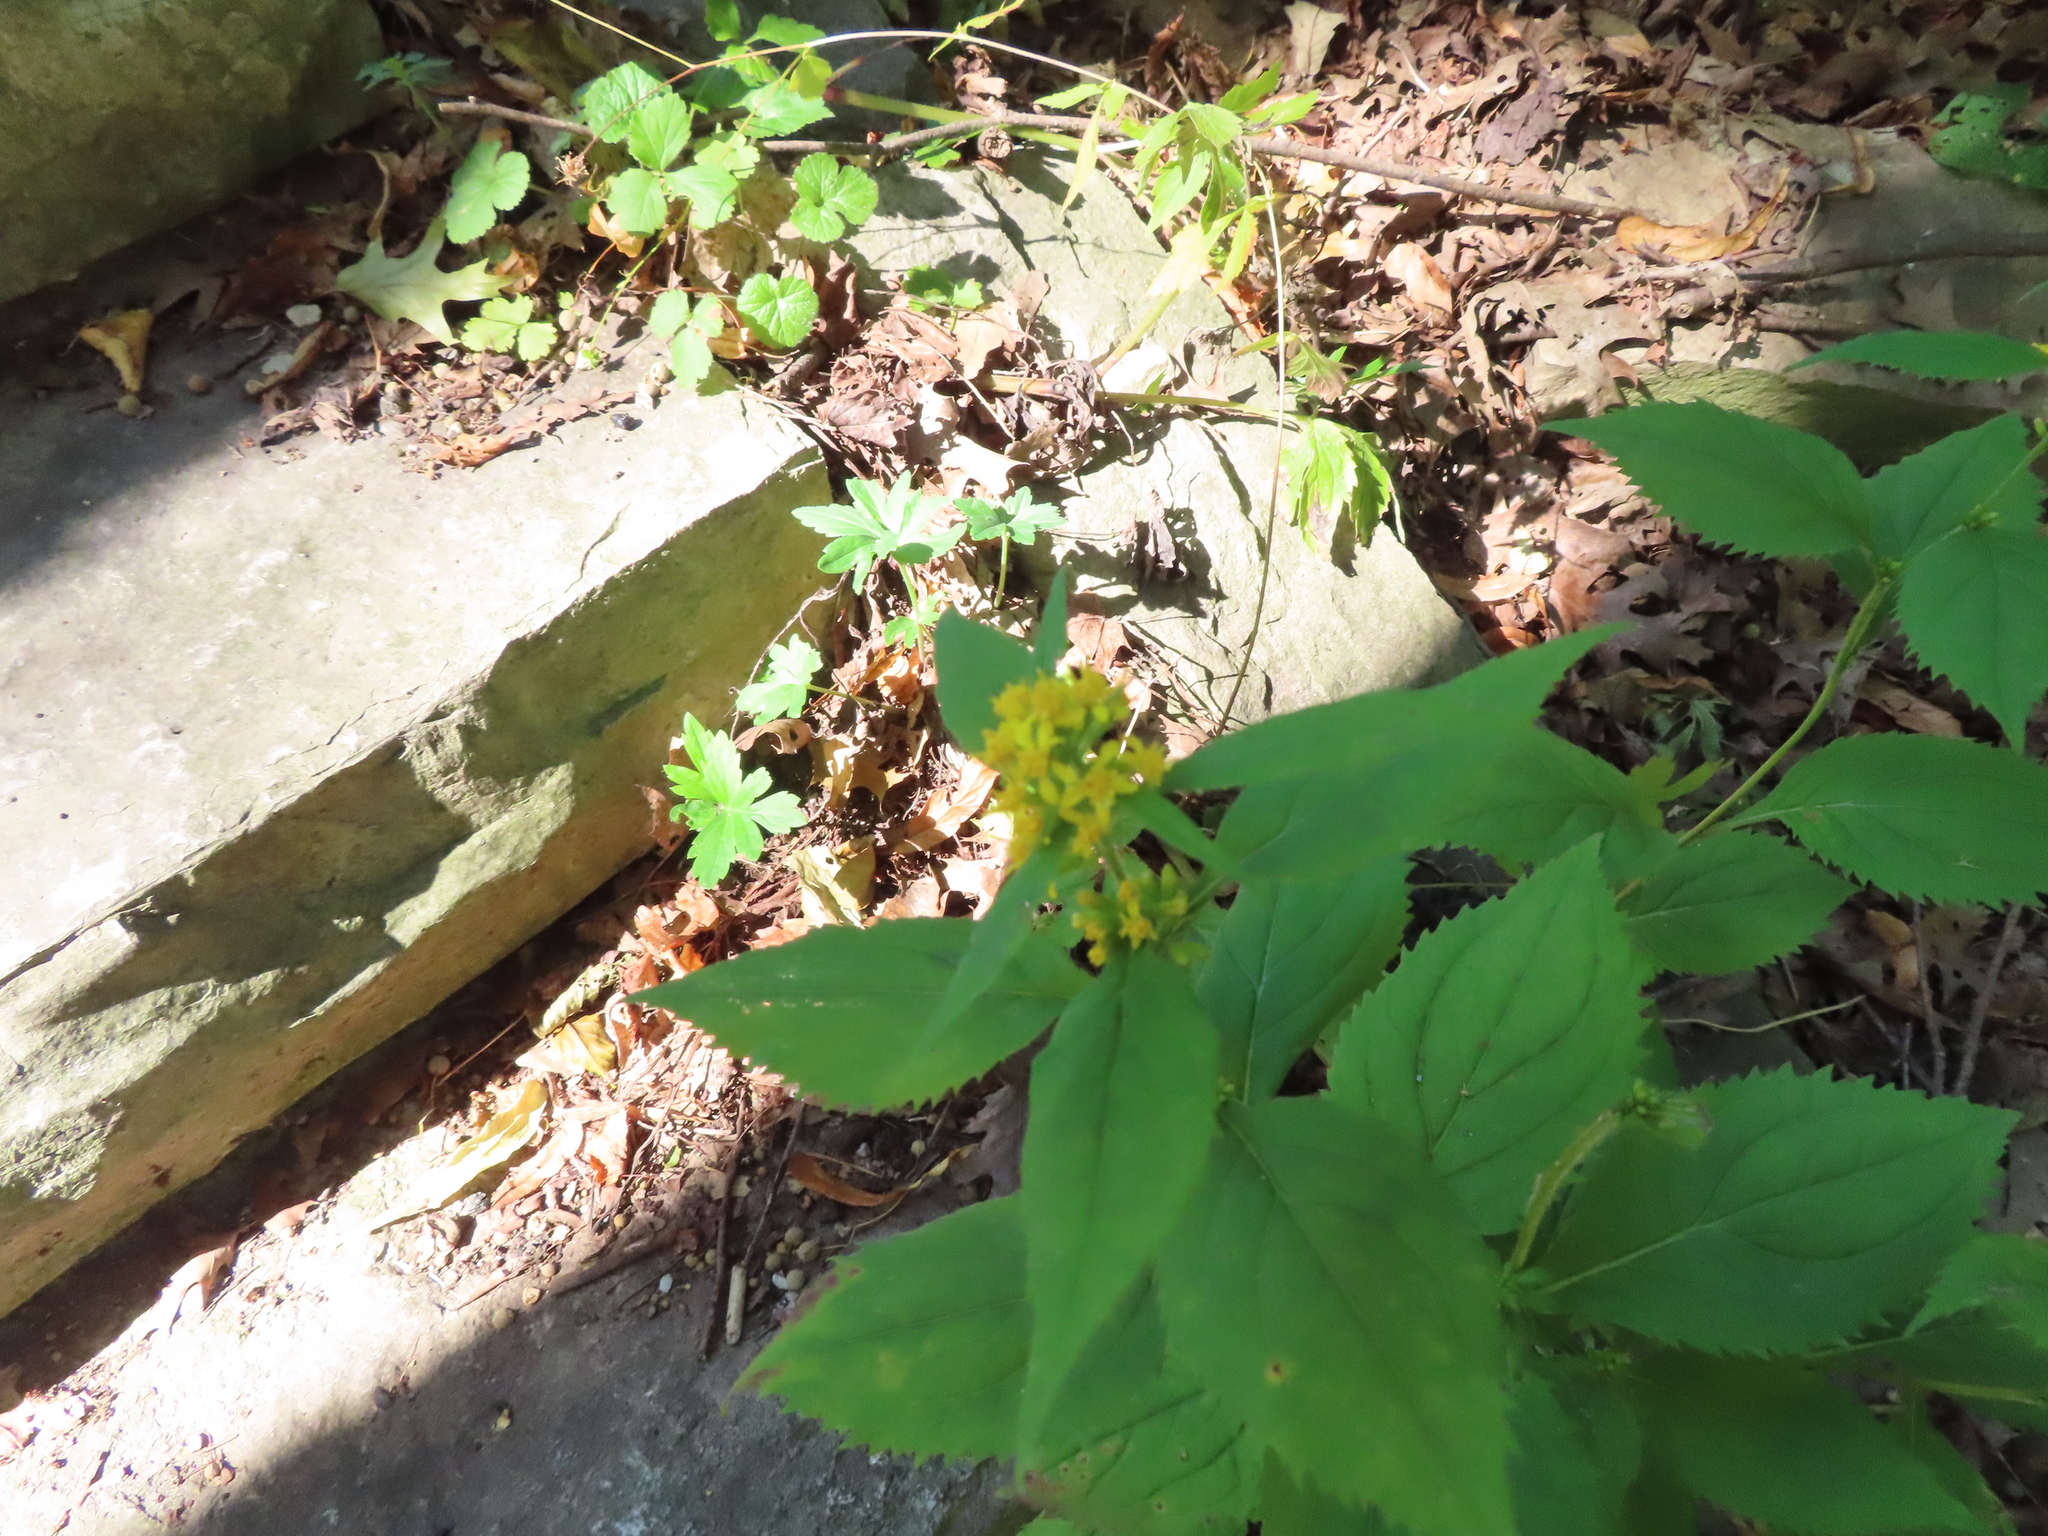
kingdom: Plantae
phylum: Tracheophyta
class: Magnoliopsida
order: Asterales
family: Asteraceae
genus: Solidago
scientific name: Solidago flexicaulis
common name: Zig-zag goldenrod
